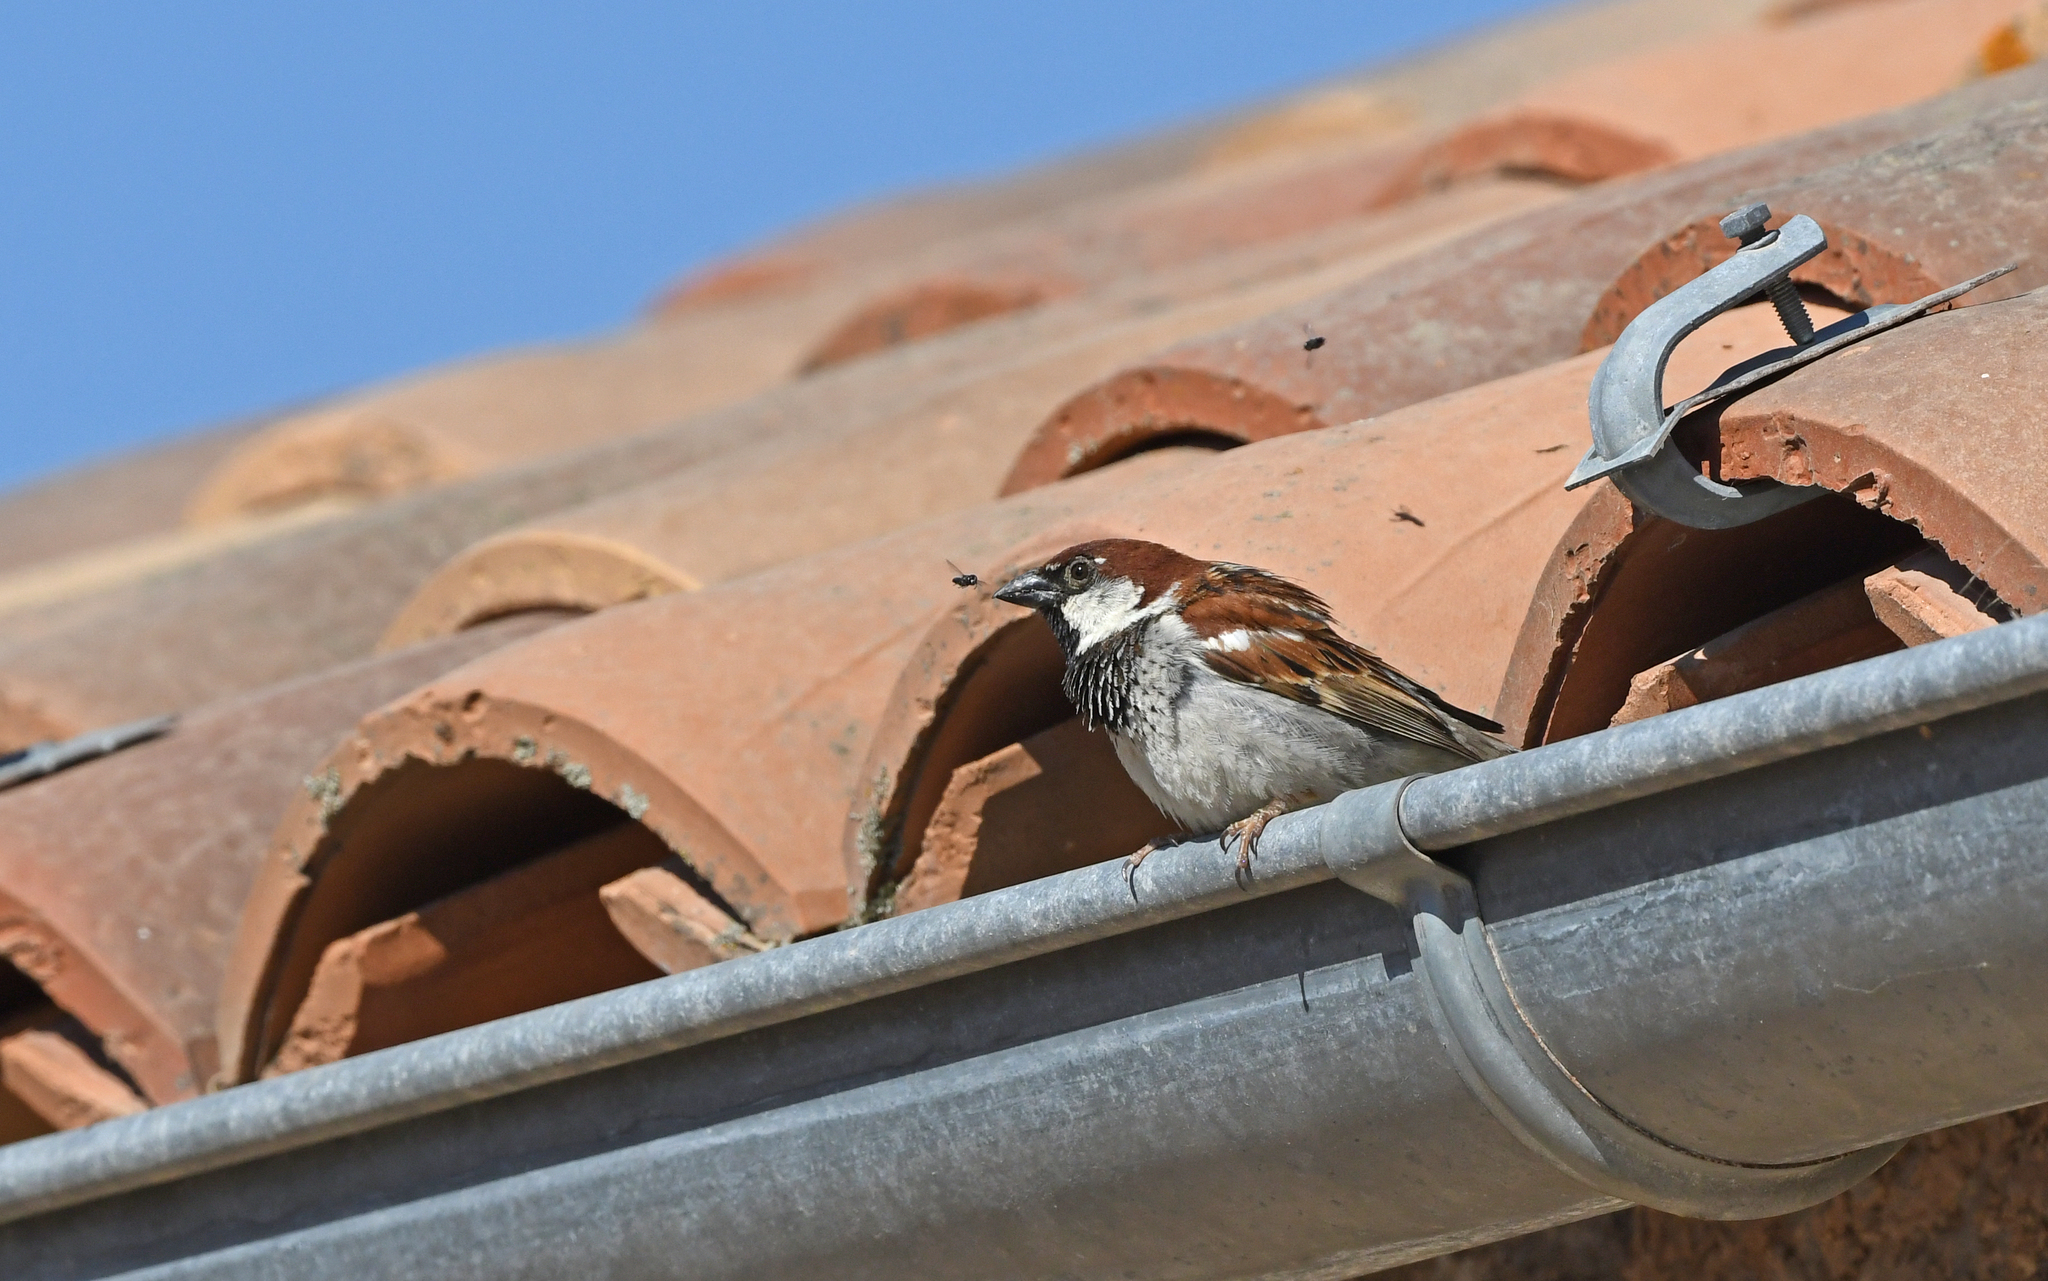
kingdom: Animalia
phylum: Chordata
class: Aves
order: Passeriformes
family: Passeridae
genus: Passer
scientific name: Passer italiae
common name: Italian sparrow
